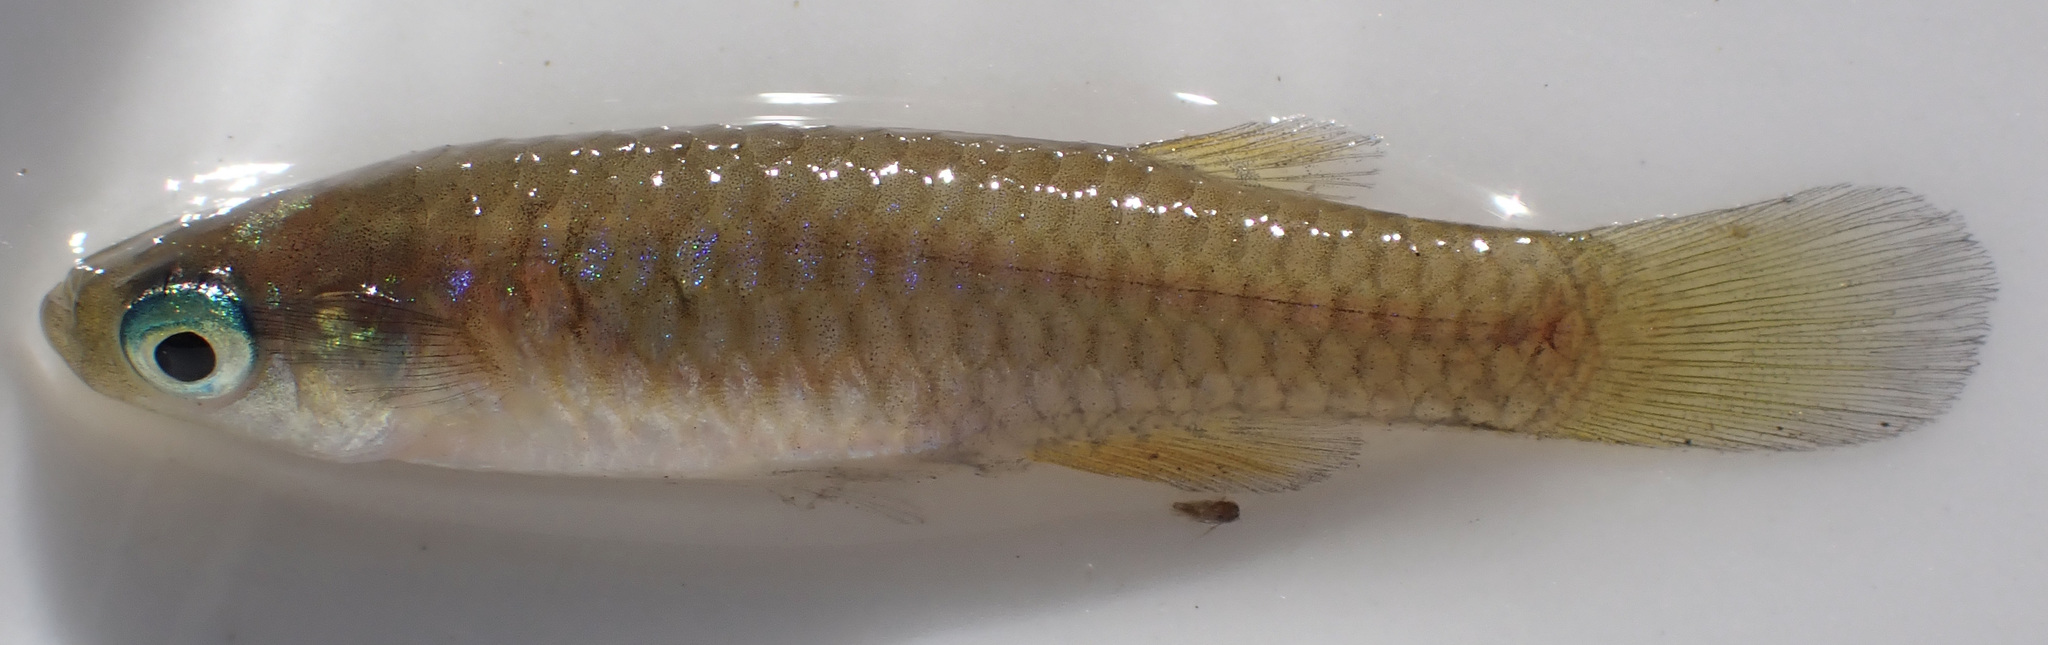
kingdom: Animalia
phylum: Chordata
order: Cyprinodontiformes
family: Poeciliidae
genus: Micropanchax
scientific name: Micropanchax hutereaui
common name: Meshscaled topminnow
